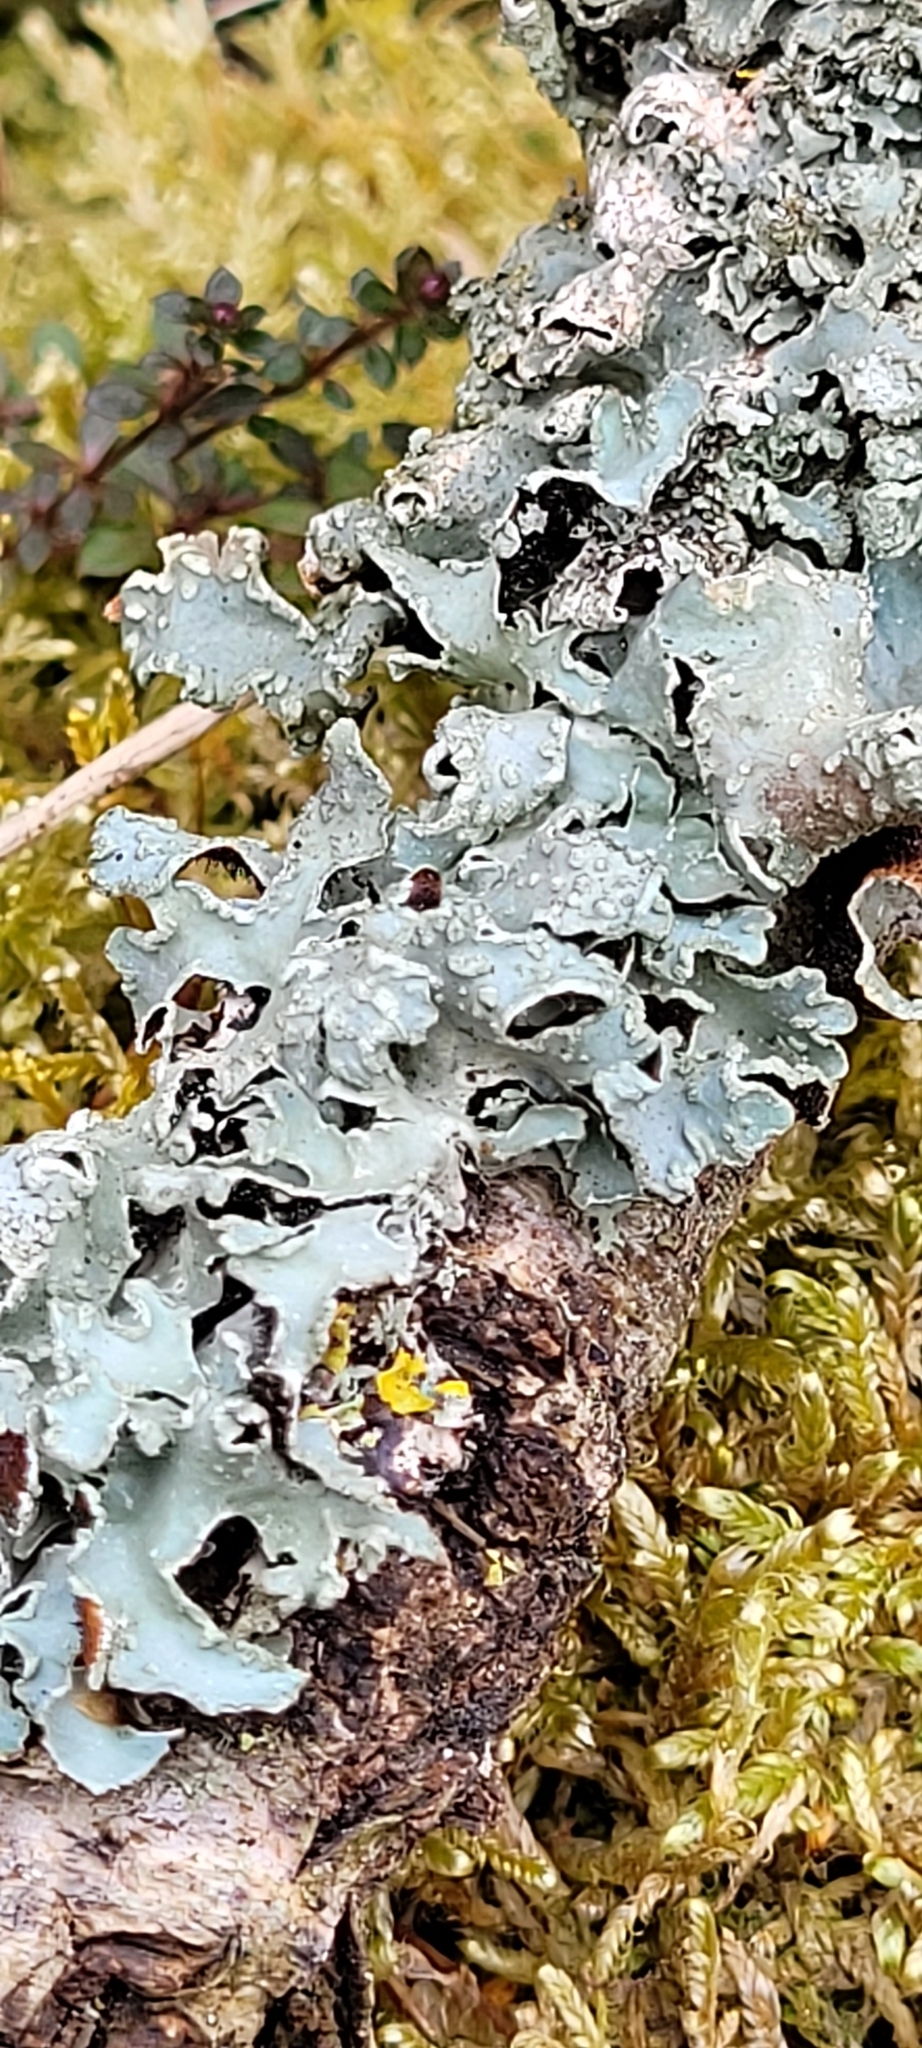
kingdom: Fungi
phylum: Ascomycota
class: Lecanoromycetes
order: Lecanorales
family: Parmeliaceae
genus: Parmelia
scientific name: Parmelia sulcata
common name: Netted shield lichen
